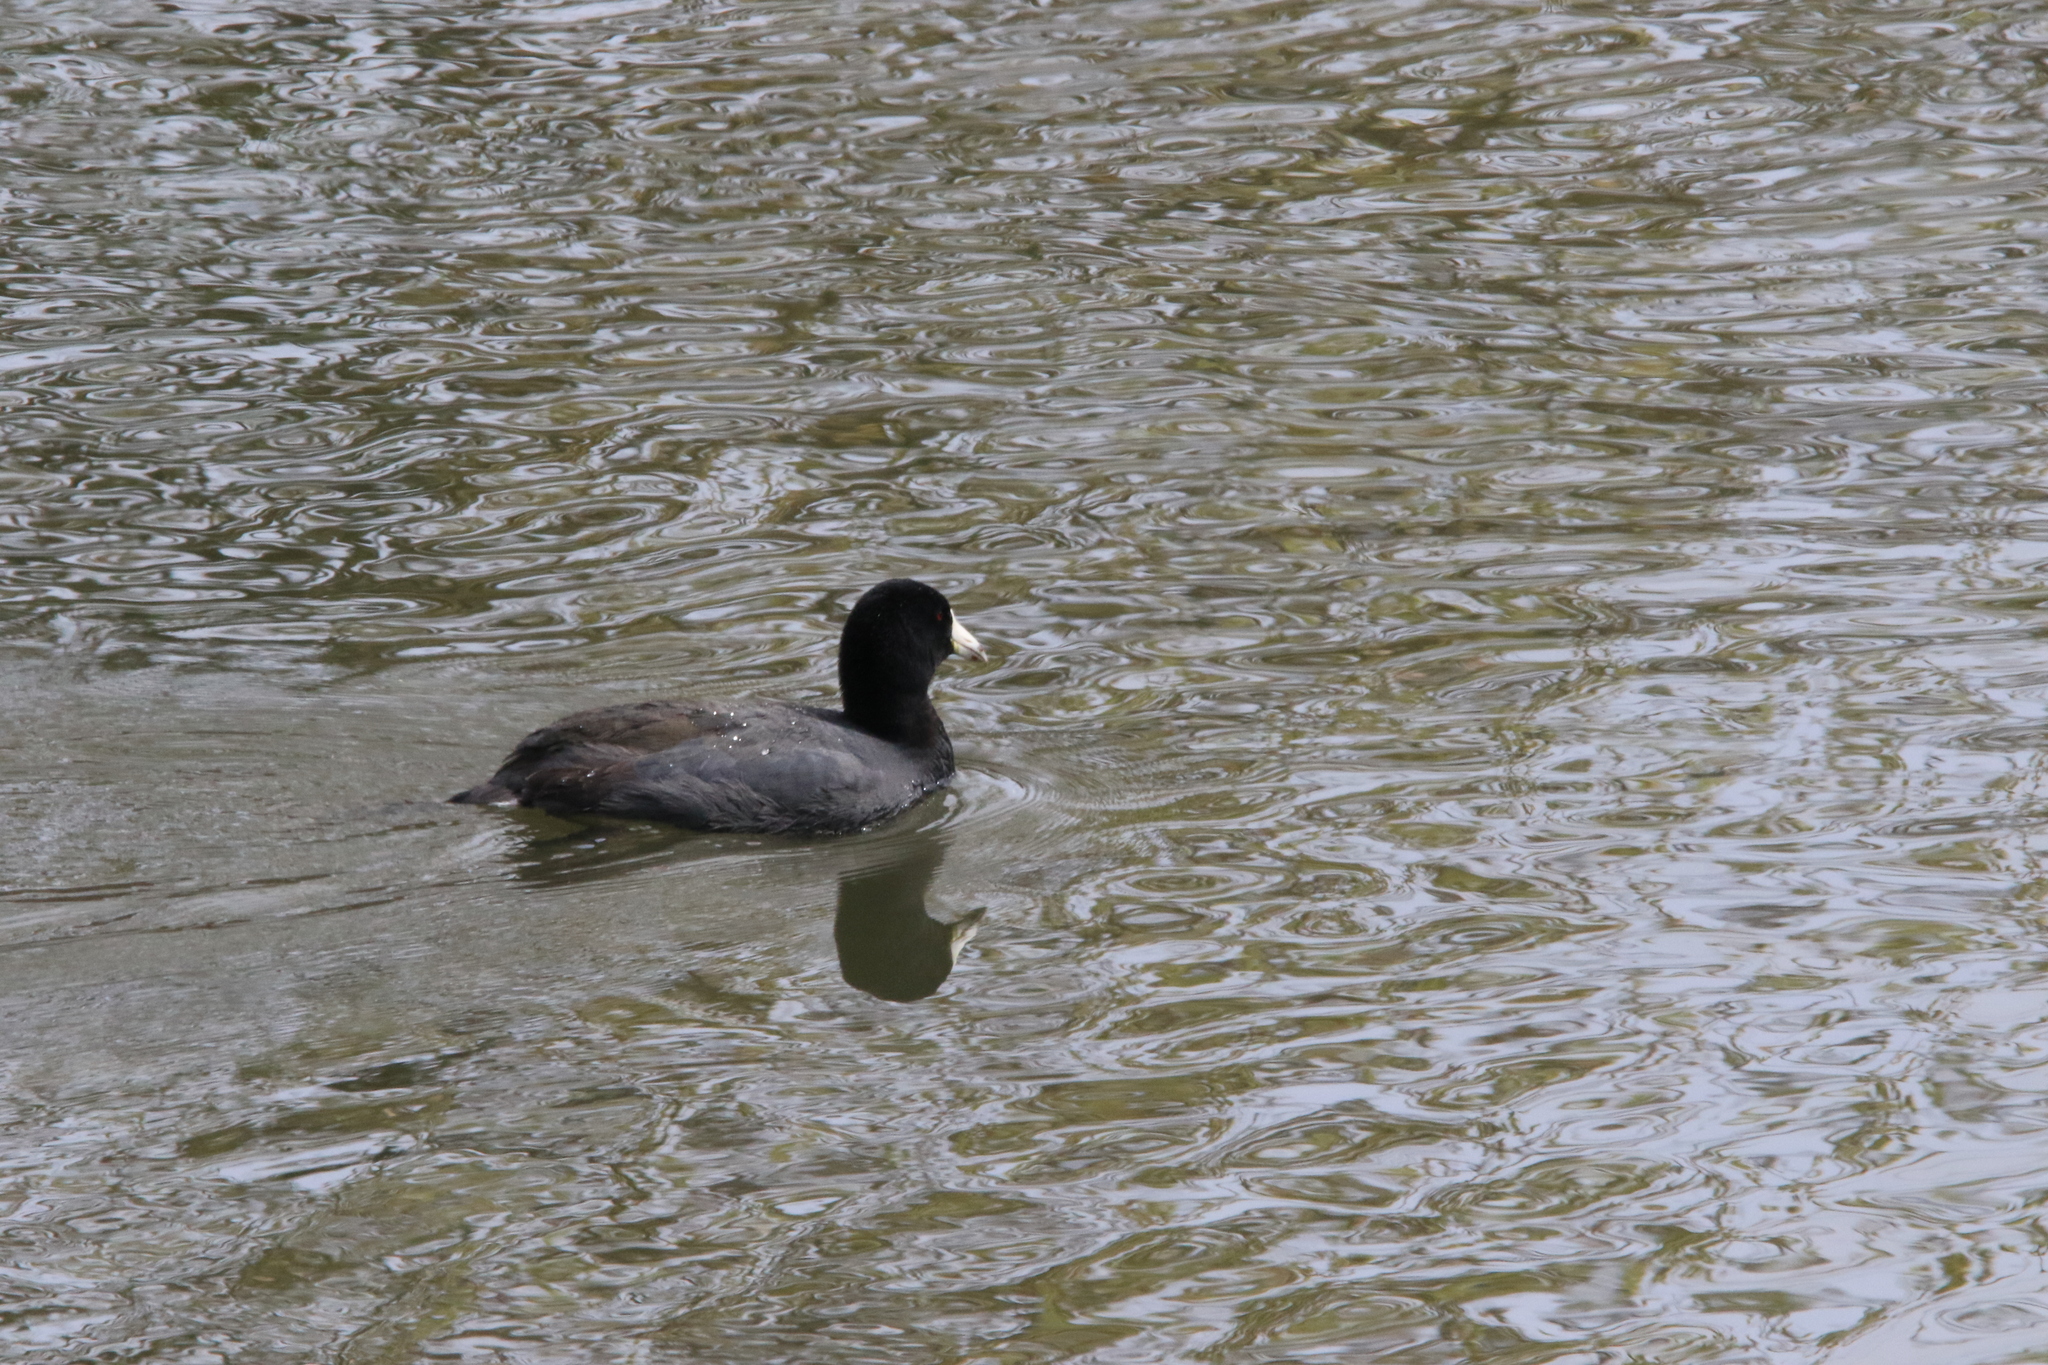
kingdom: Animalia
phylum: Chordata
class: Aves
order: Gruiformes
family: Rallidae
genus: Fulica
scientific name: Fulica americana
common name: American coot
